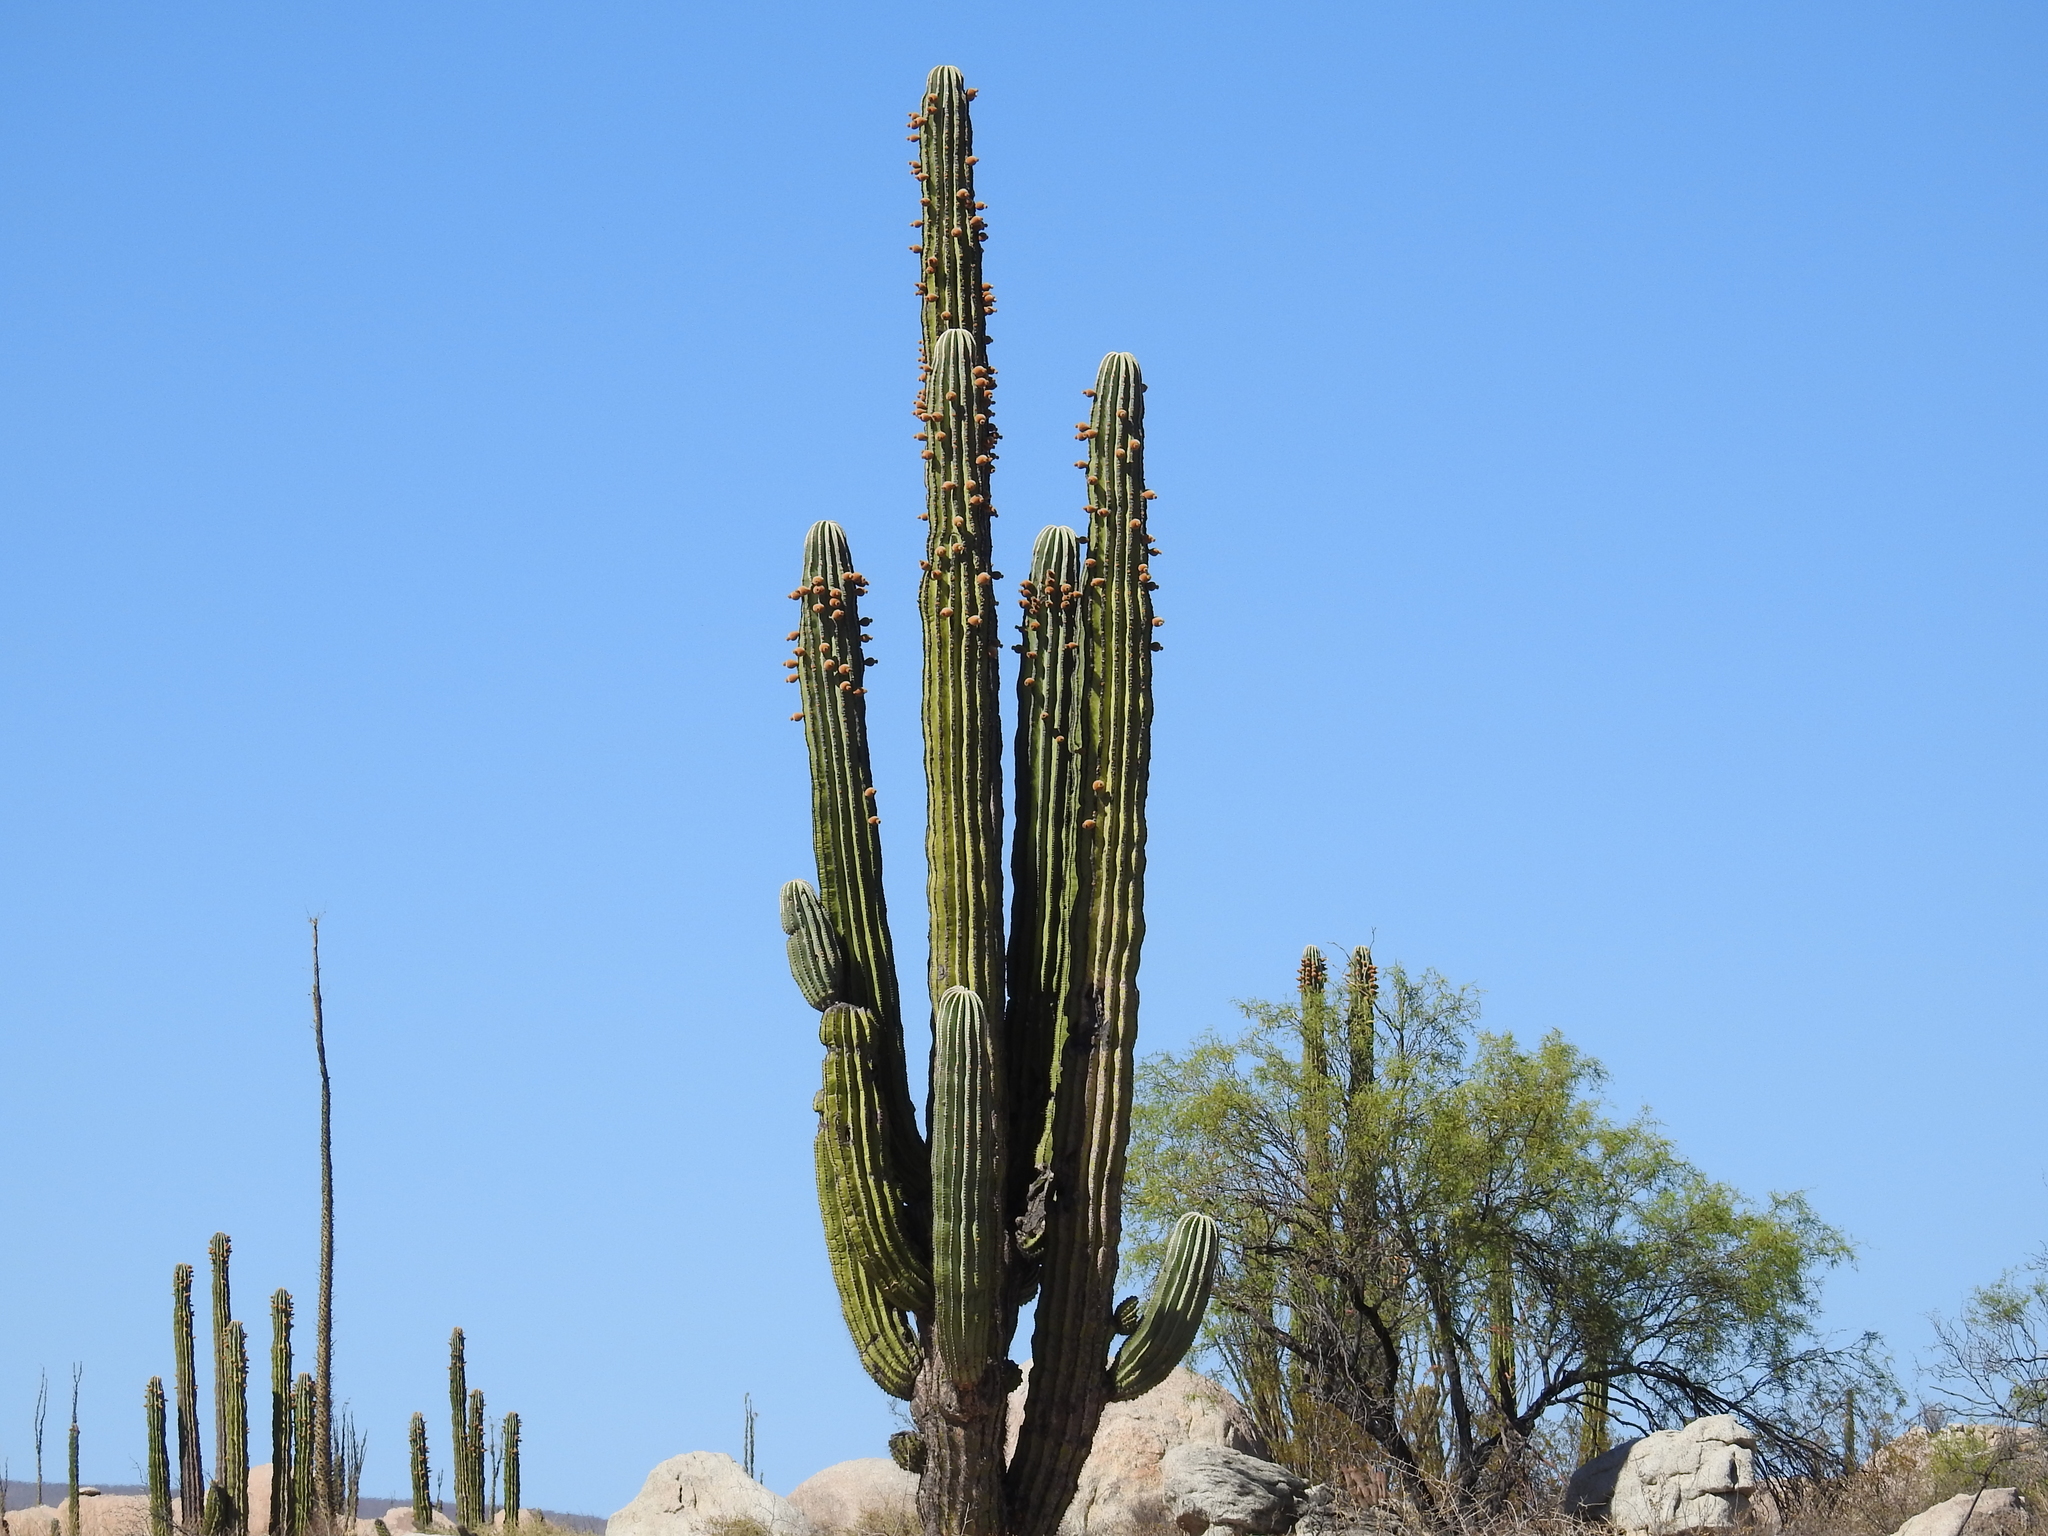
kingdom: Plantae
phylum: Tracheophyta
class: Magnoliopsida
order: Caryophyllales
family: Cactaceae
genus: Pachycereus
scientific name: Pachycereus pringlei
